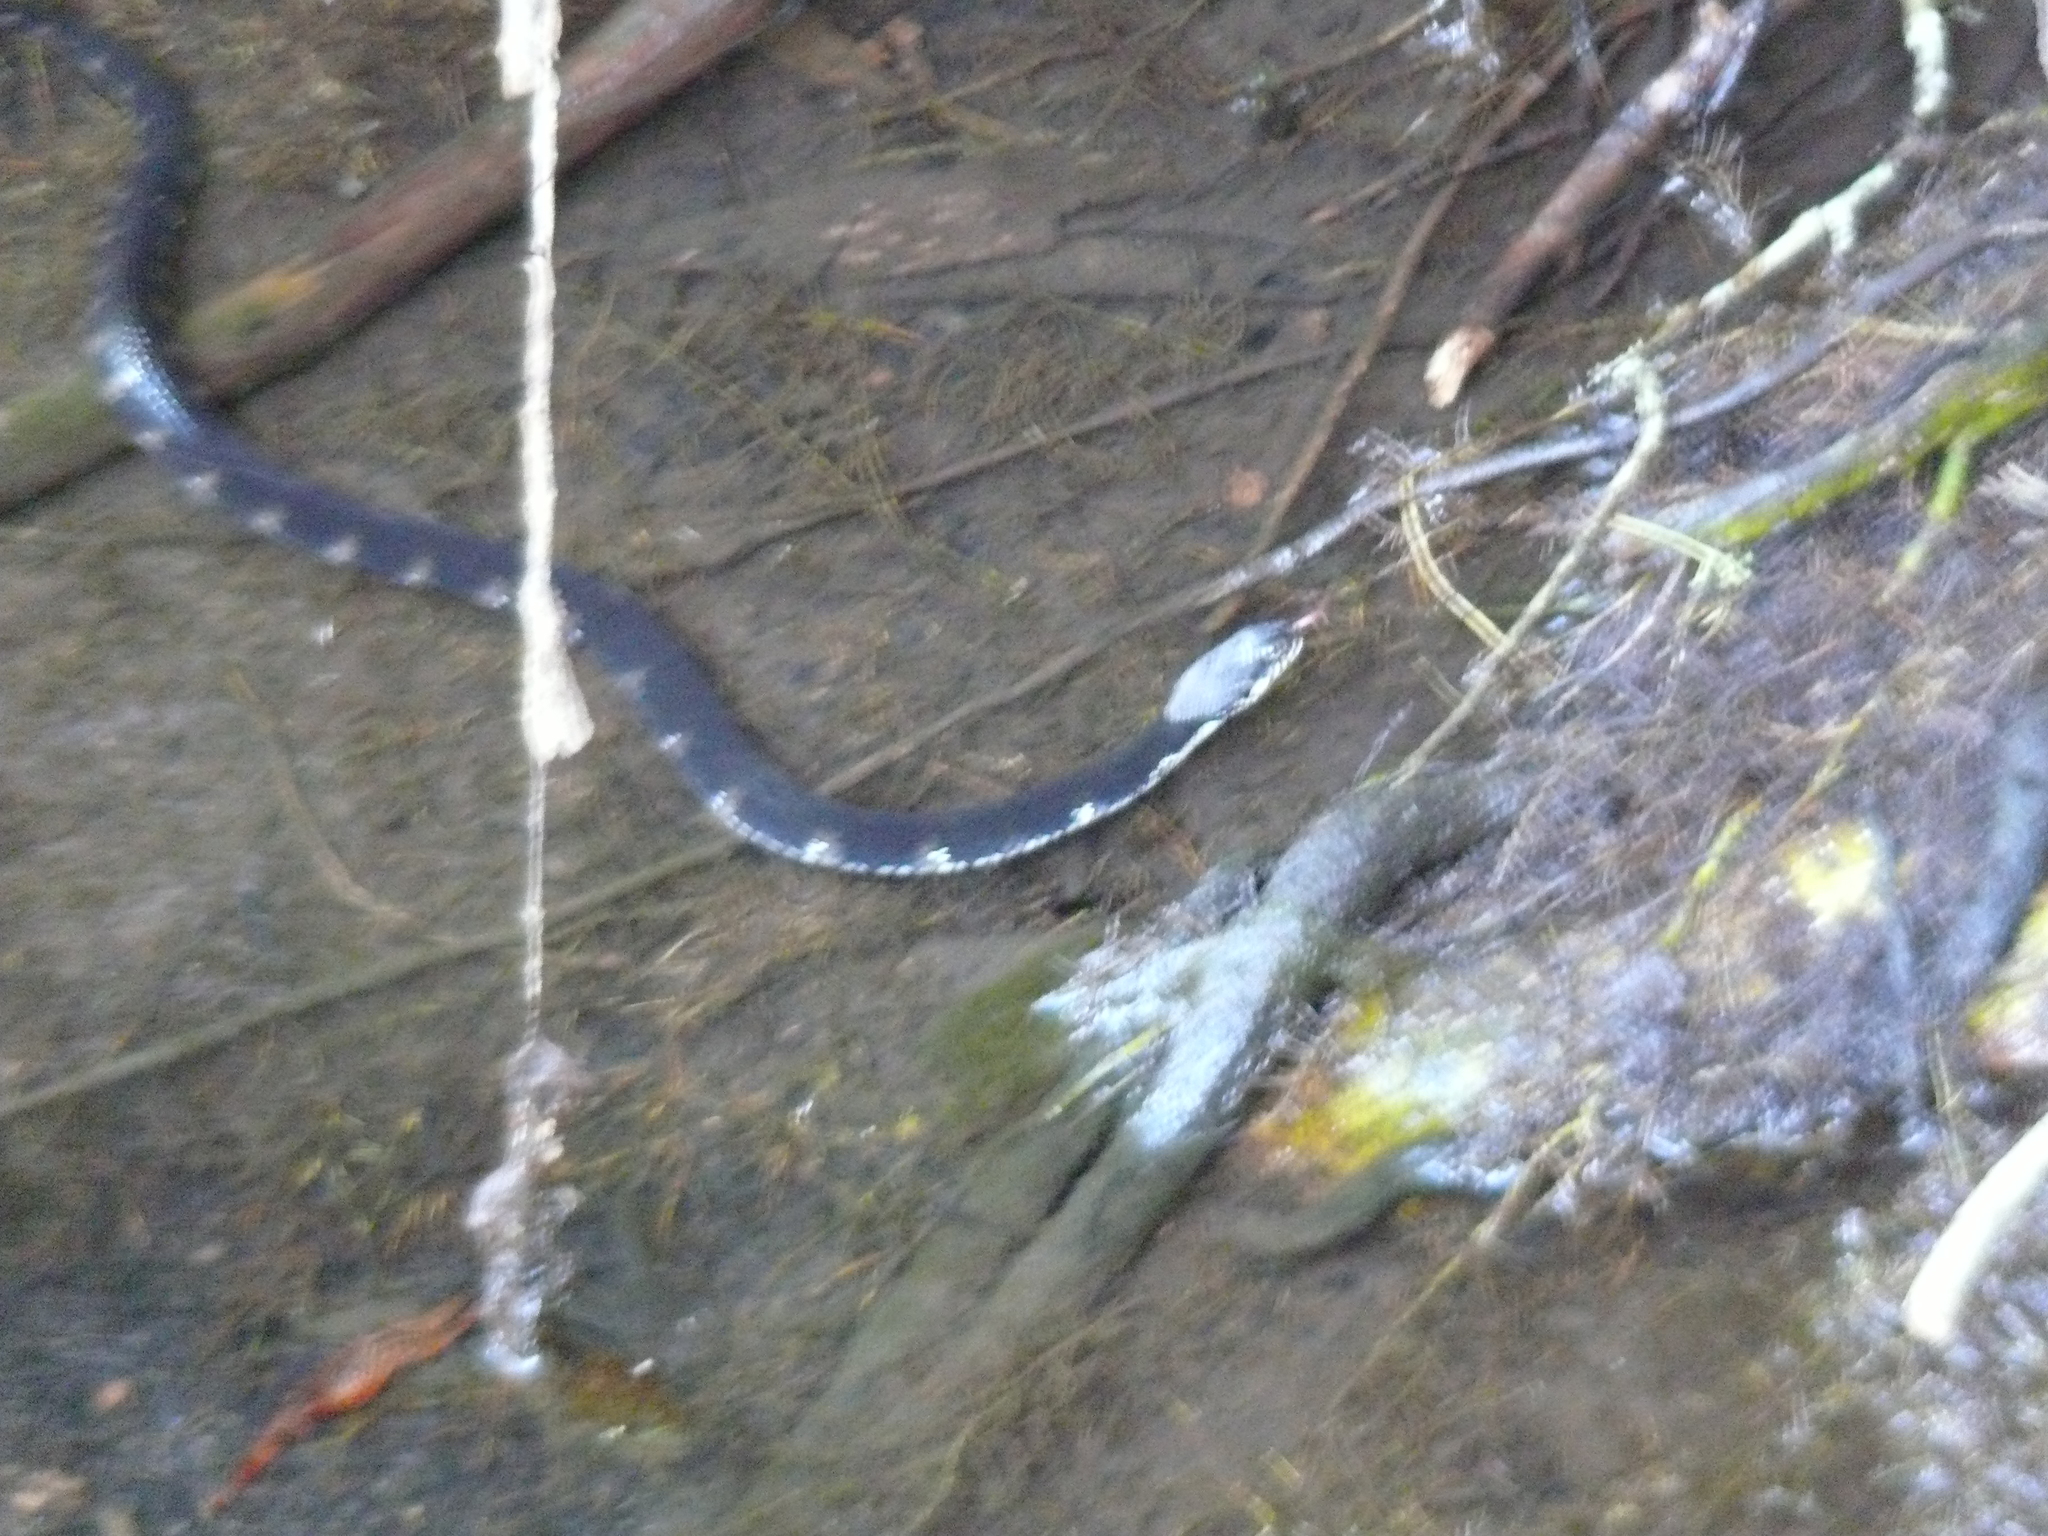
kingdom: Animalia
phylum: Chordata
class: Squamata
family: Colubridae
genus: Nerodia
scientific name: Nerodia fasciata
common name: Southern water snake
